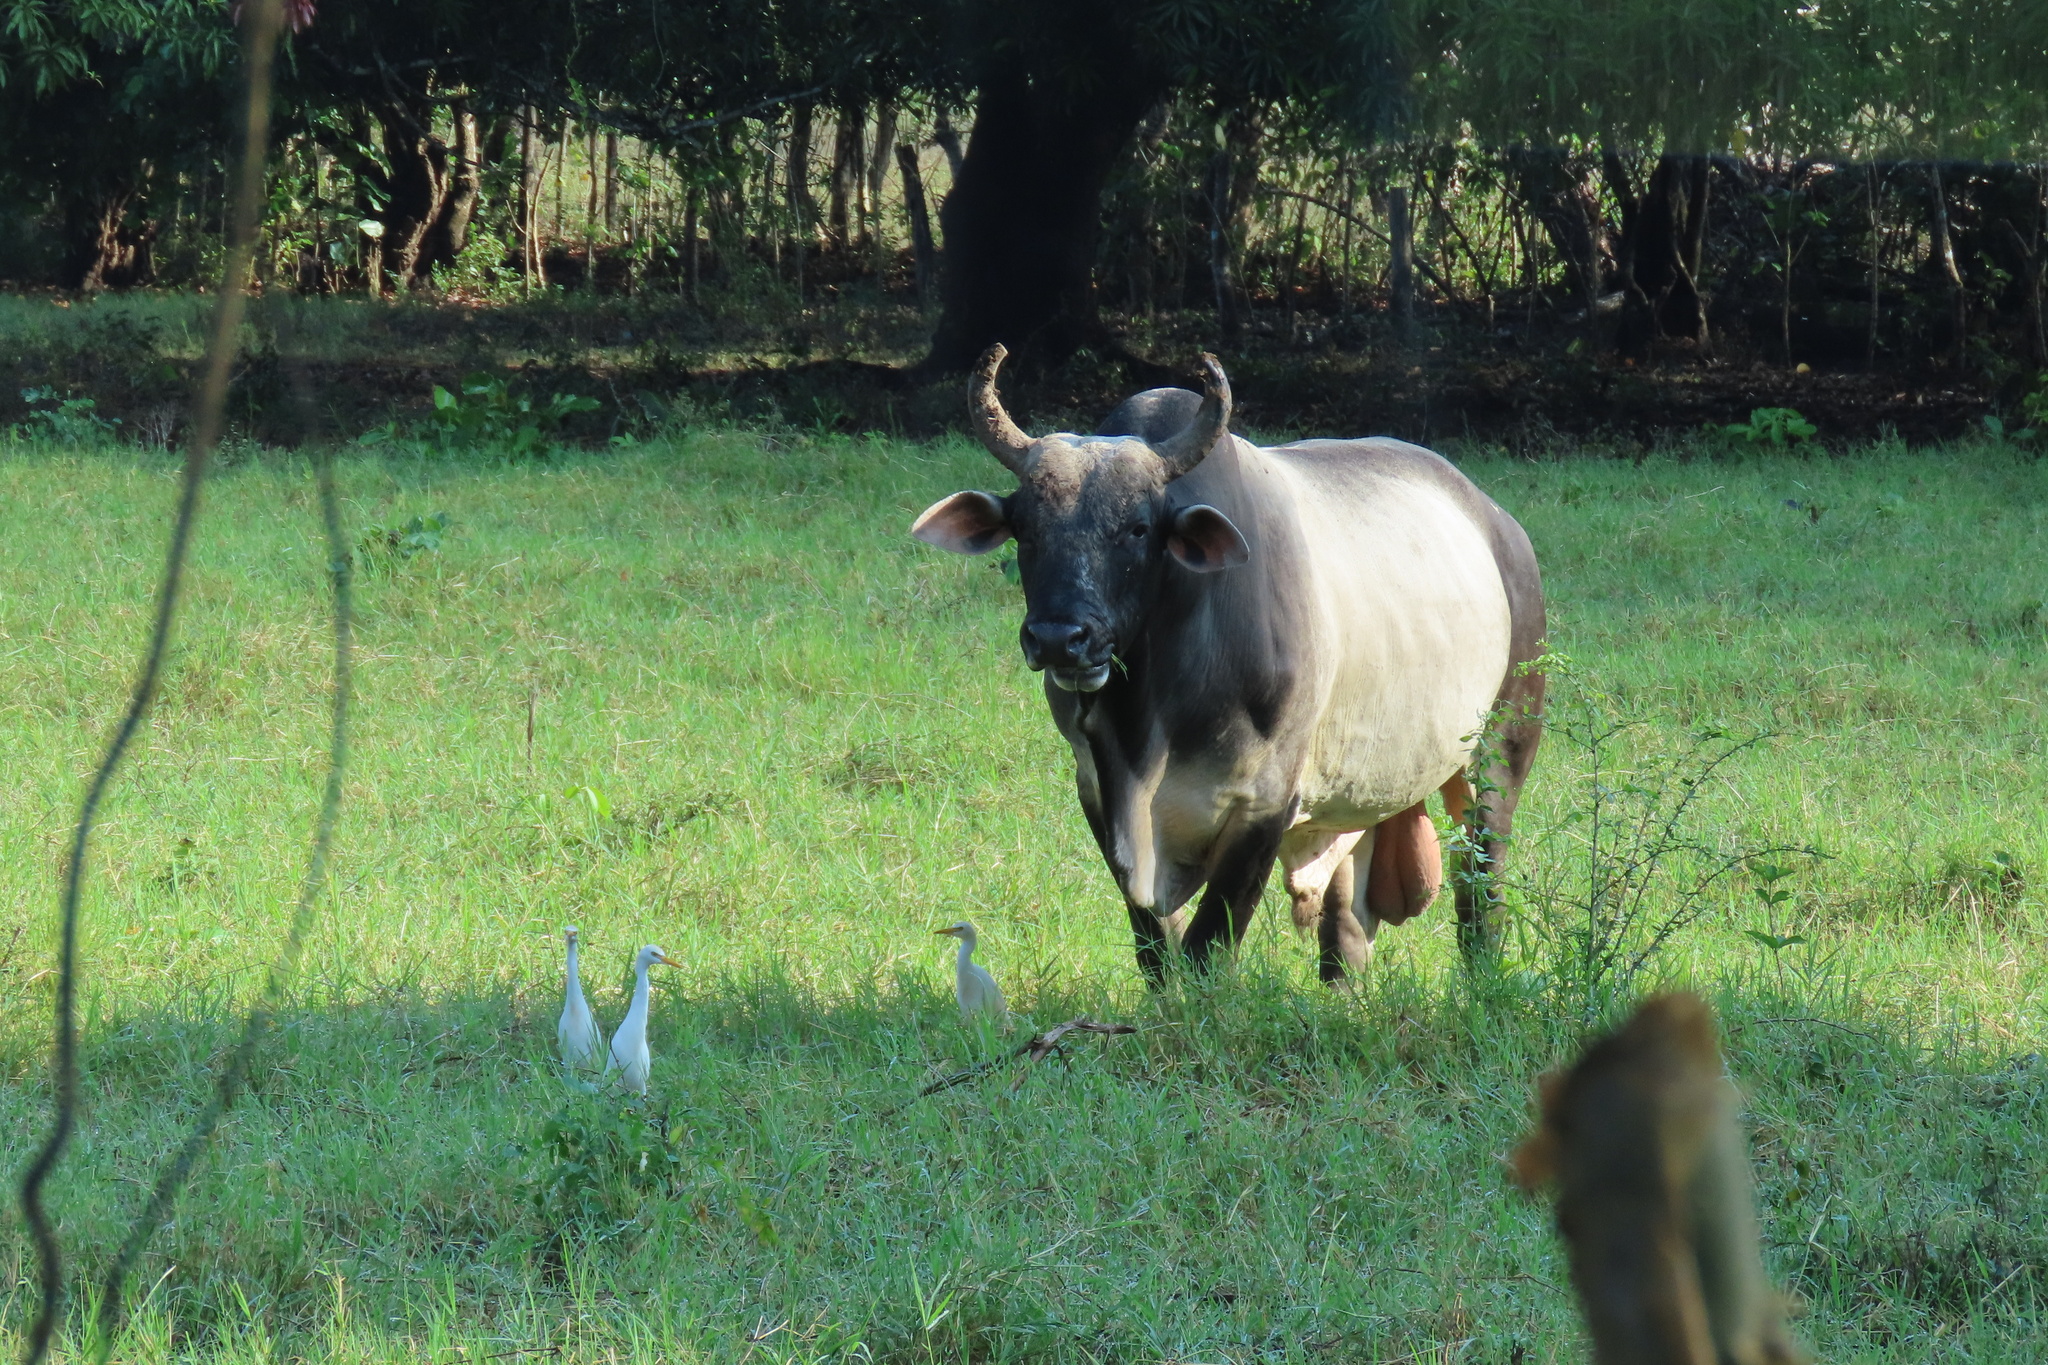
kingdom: Animalia
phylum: Chordata
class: Aves
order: Pelecaniformes
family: Ardeidae
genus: Bubulcus
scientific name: Bubulcus ibis
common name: Cattle egret
